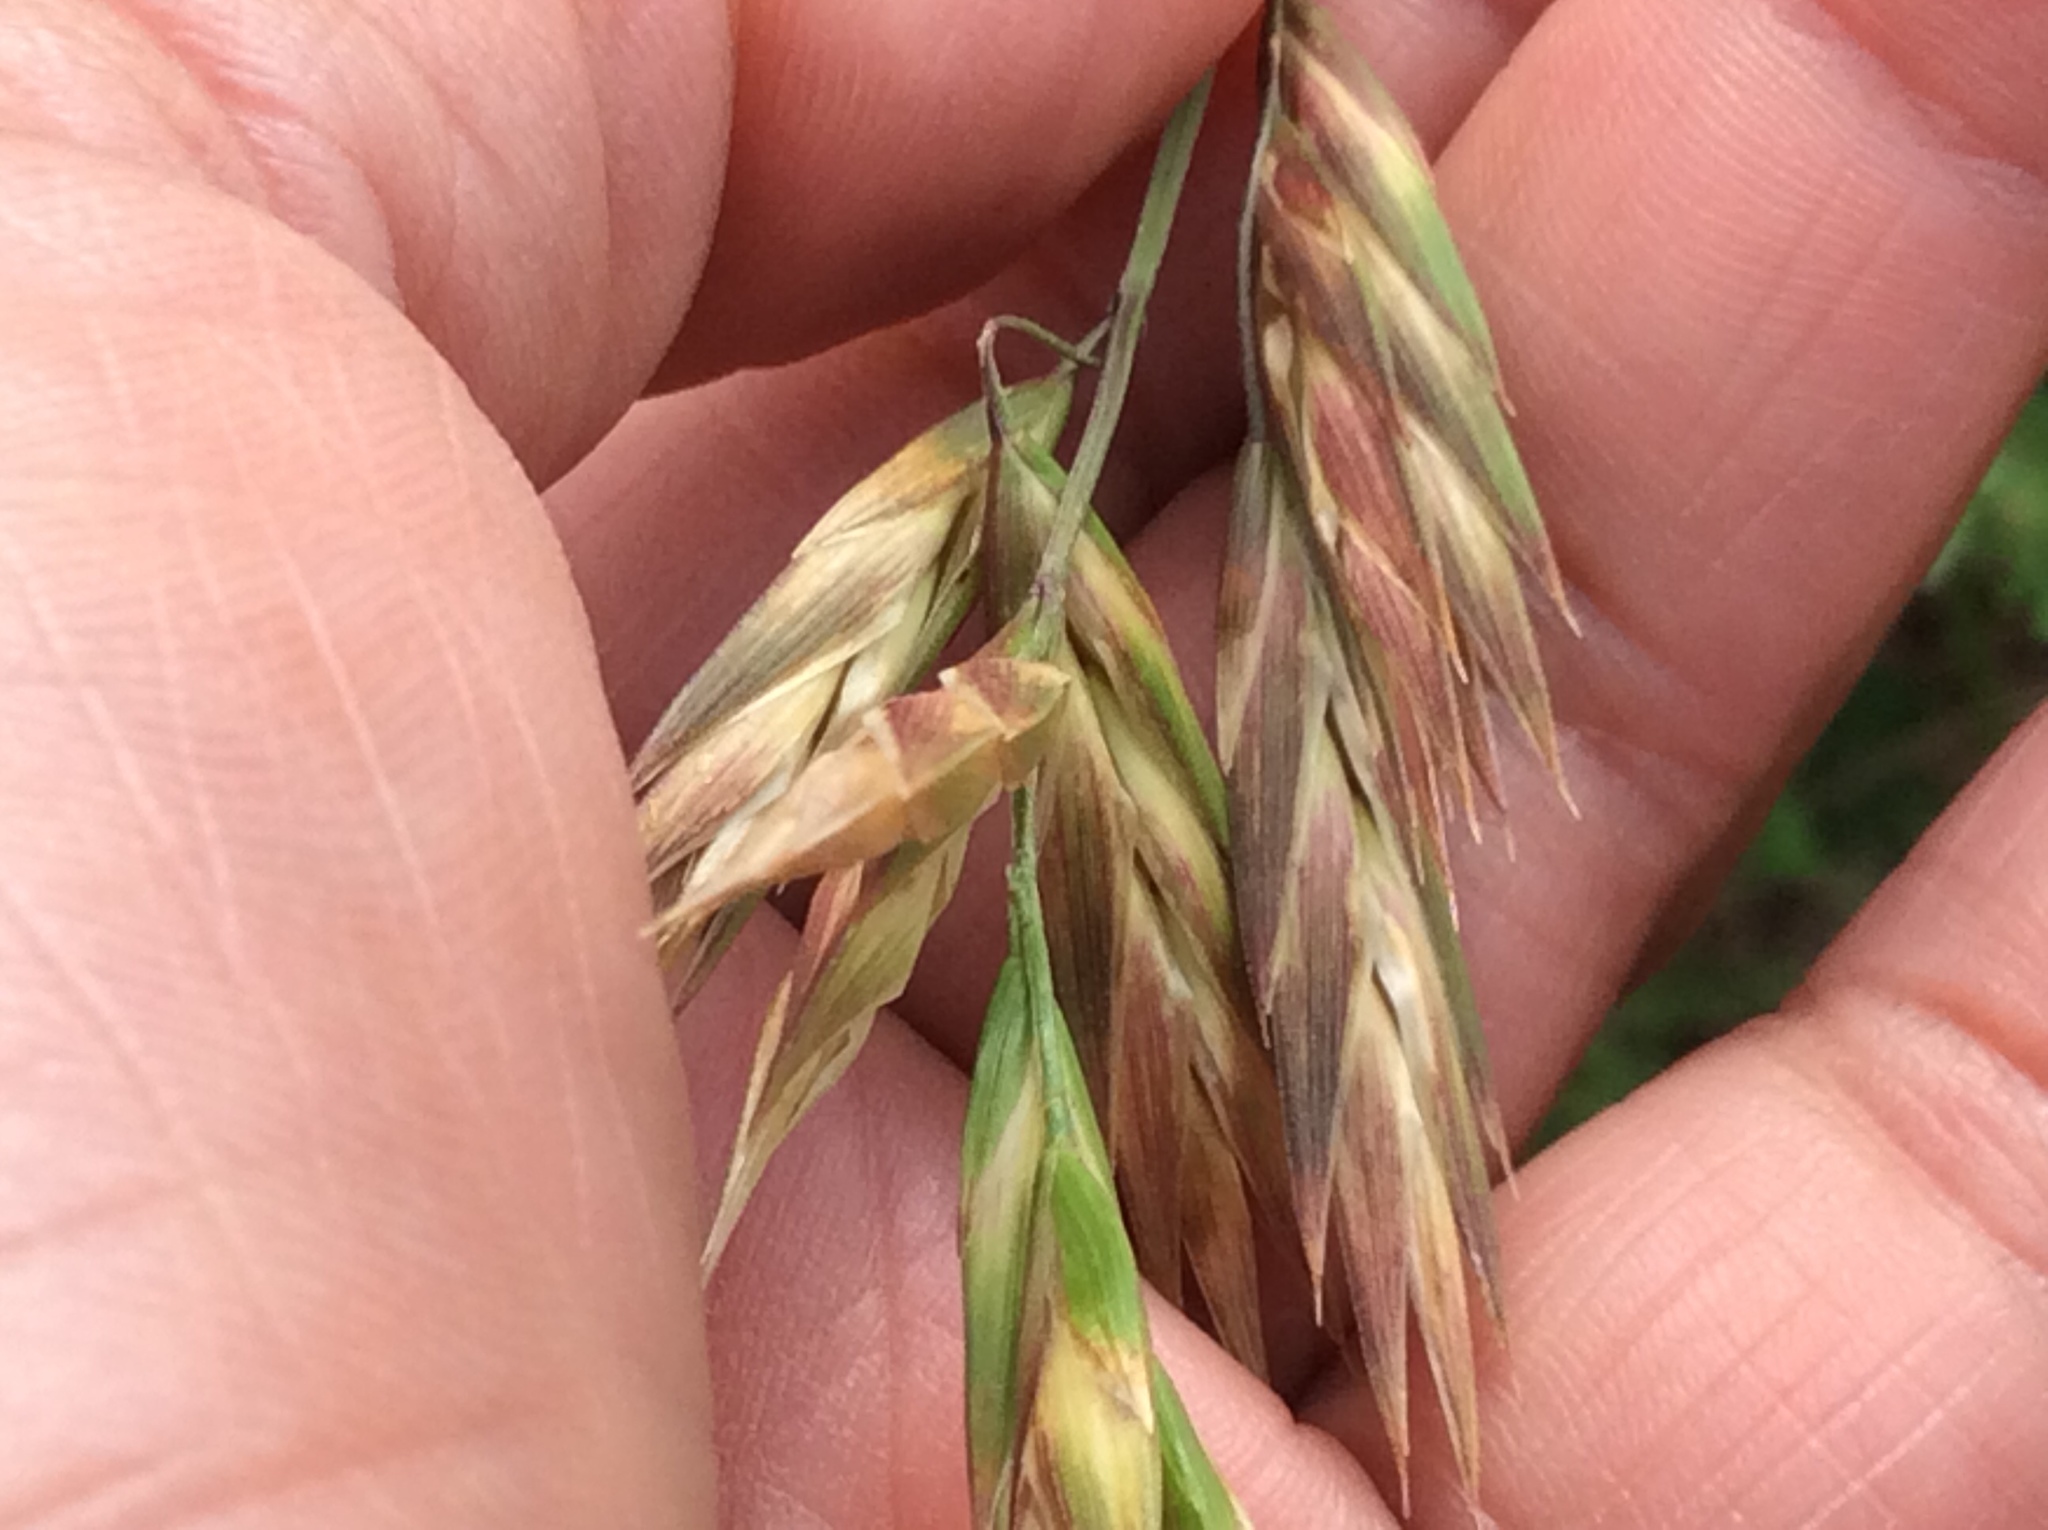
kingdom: Plantae
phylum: Tracheophyta
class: Liliopsida
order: Poales
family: Poaceae
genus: Bromus
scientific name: Bromus catharticus
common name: Rescuegrass
